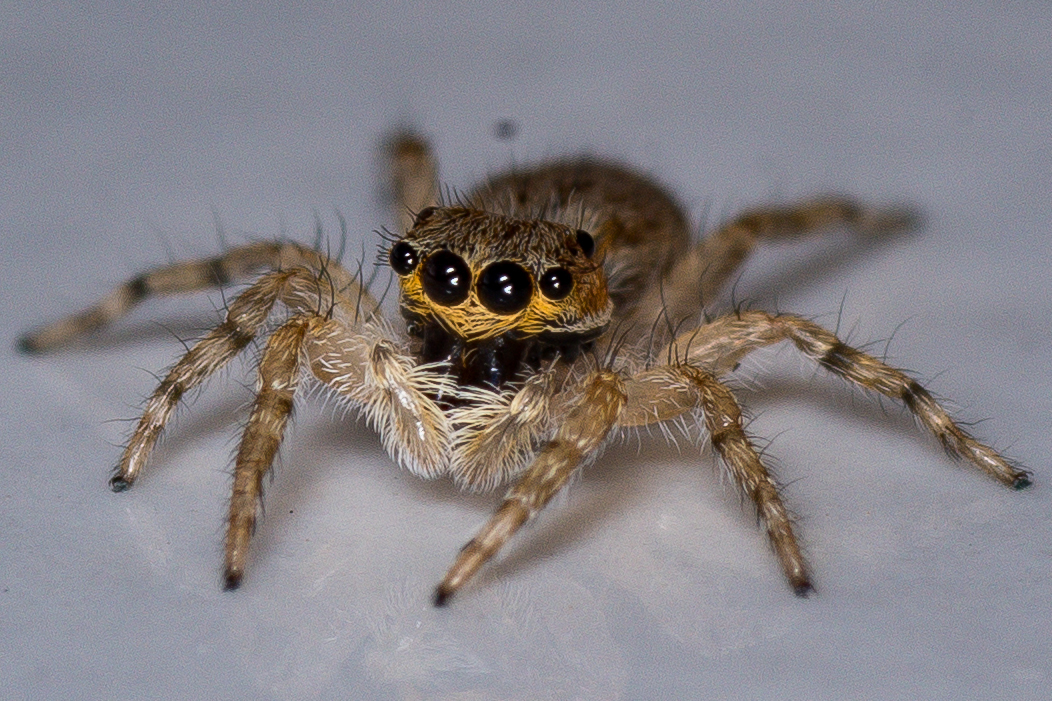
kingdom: Animalia
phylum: Arthropoda
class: Arachnida
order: Araneae
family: Salticidae
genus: Menemerus
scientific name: Menemerus bivittatus
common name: Gray wall jumper
